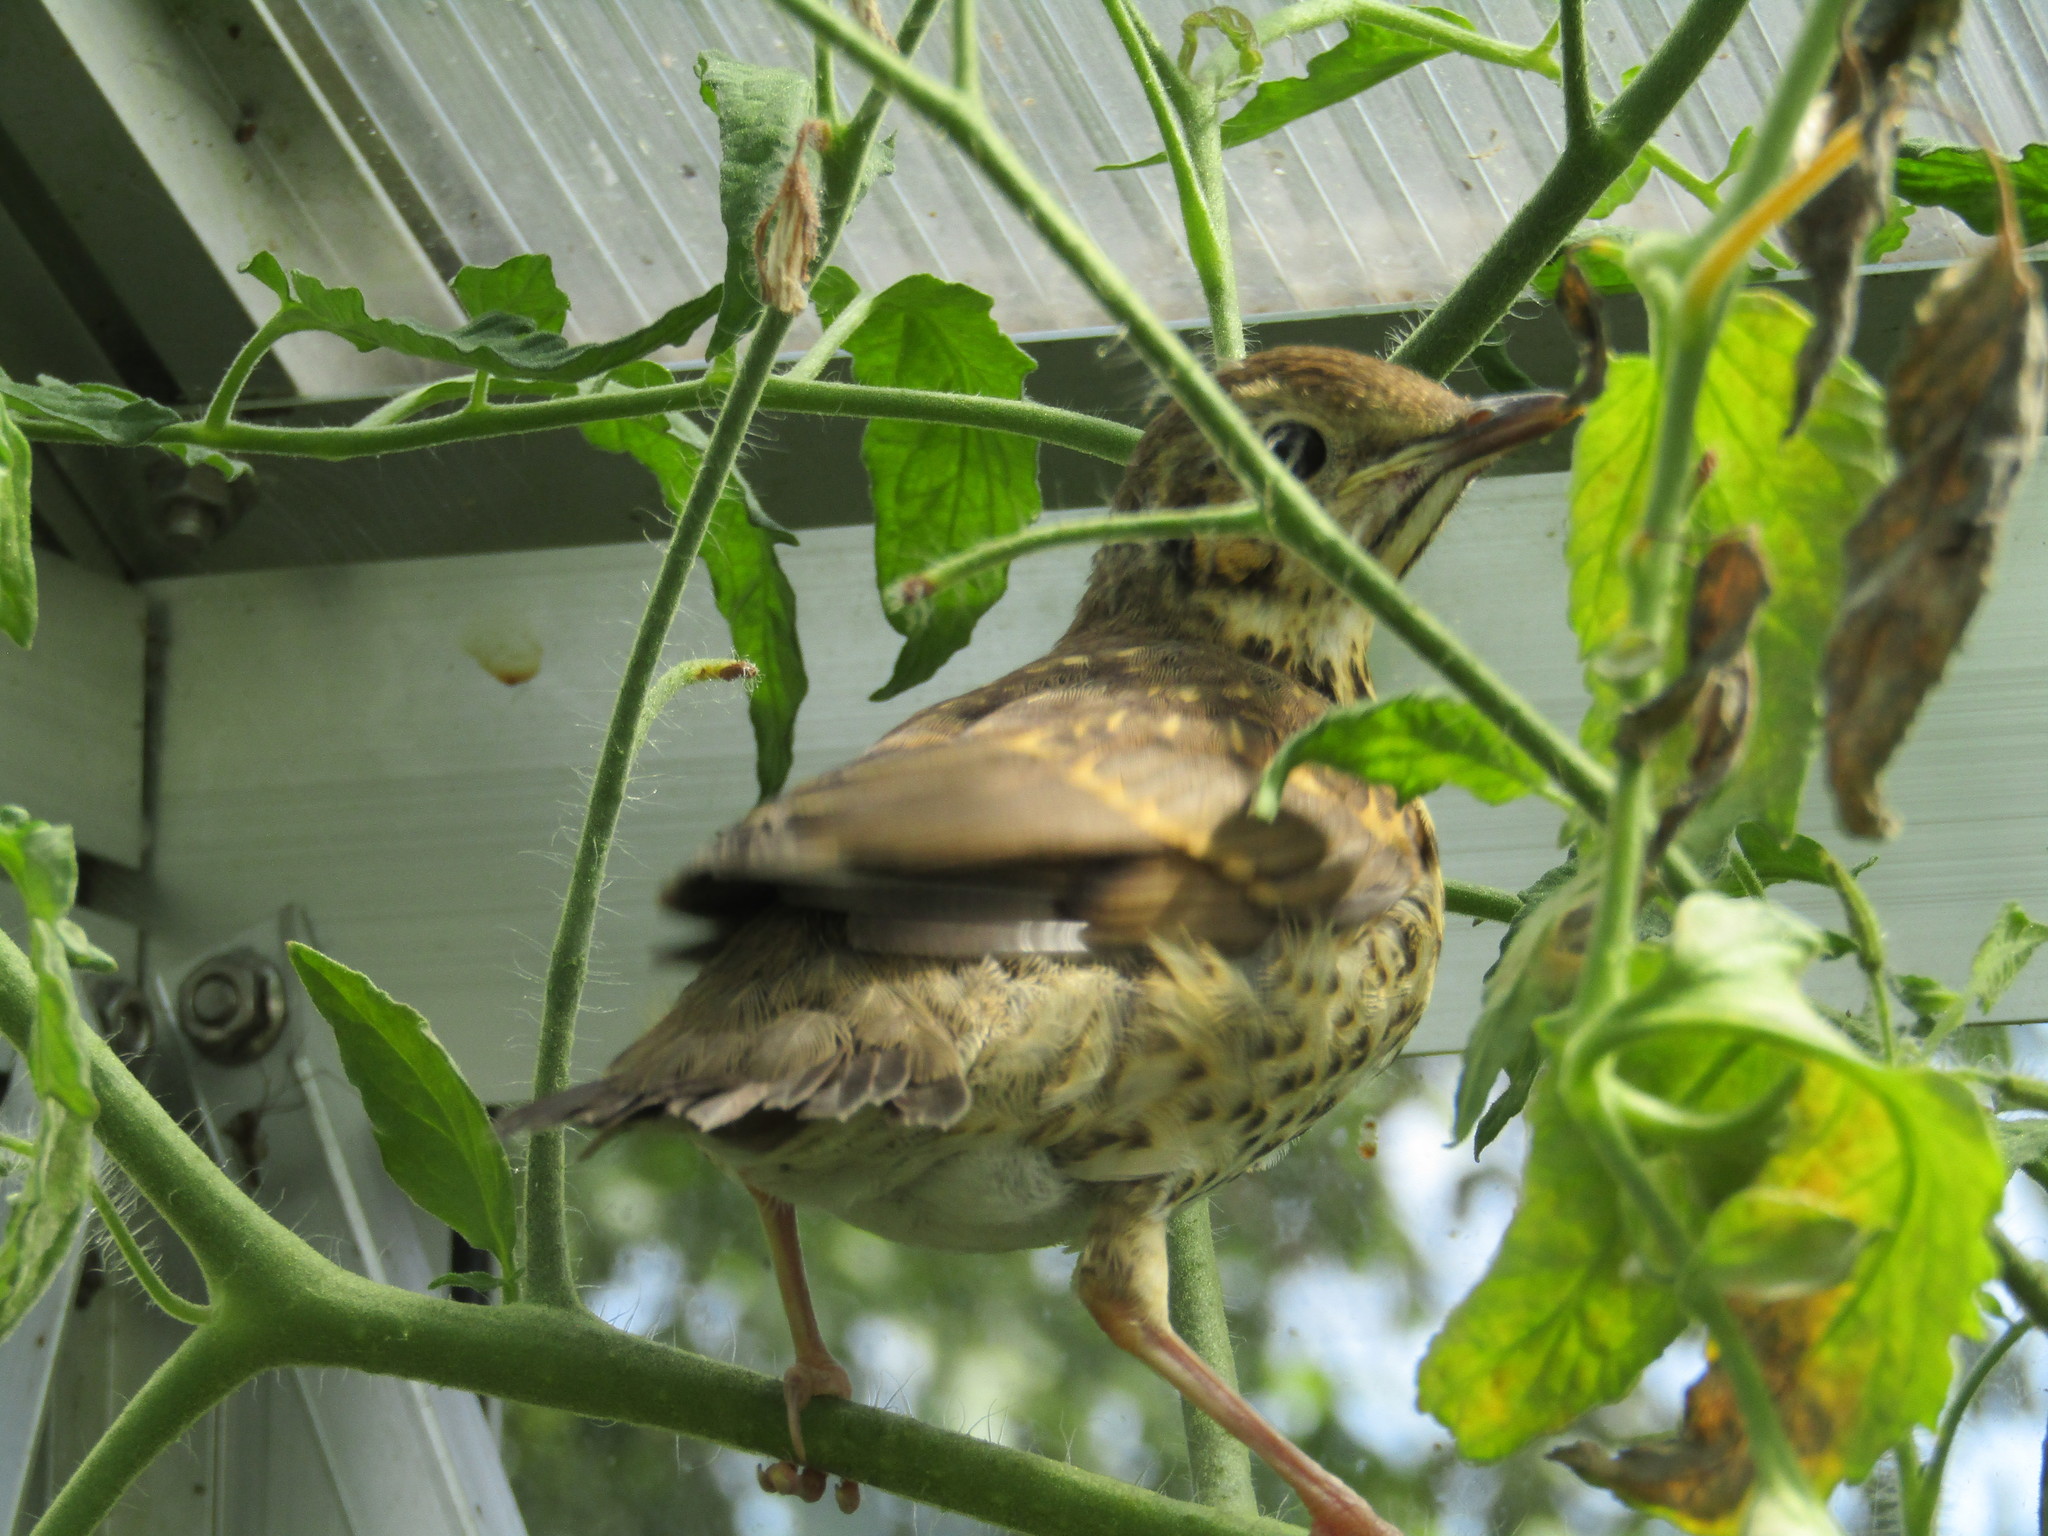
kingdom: Animalia
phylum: Chordata
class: Aves
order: Passeriformes
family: Turdidae
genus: Turdus
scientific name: Turdus philomelos
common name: Song thrush
